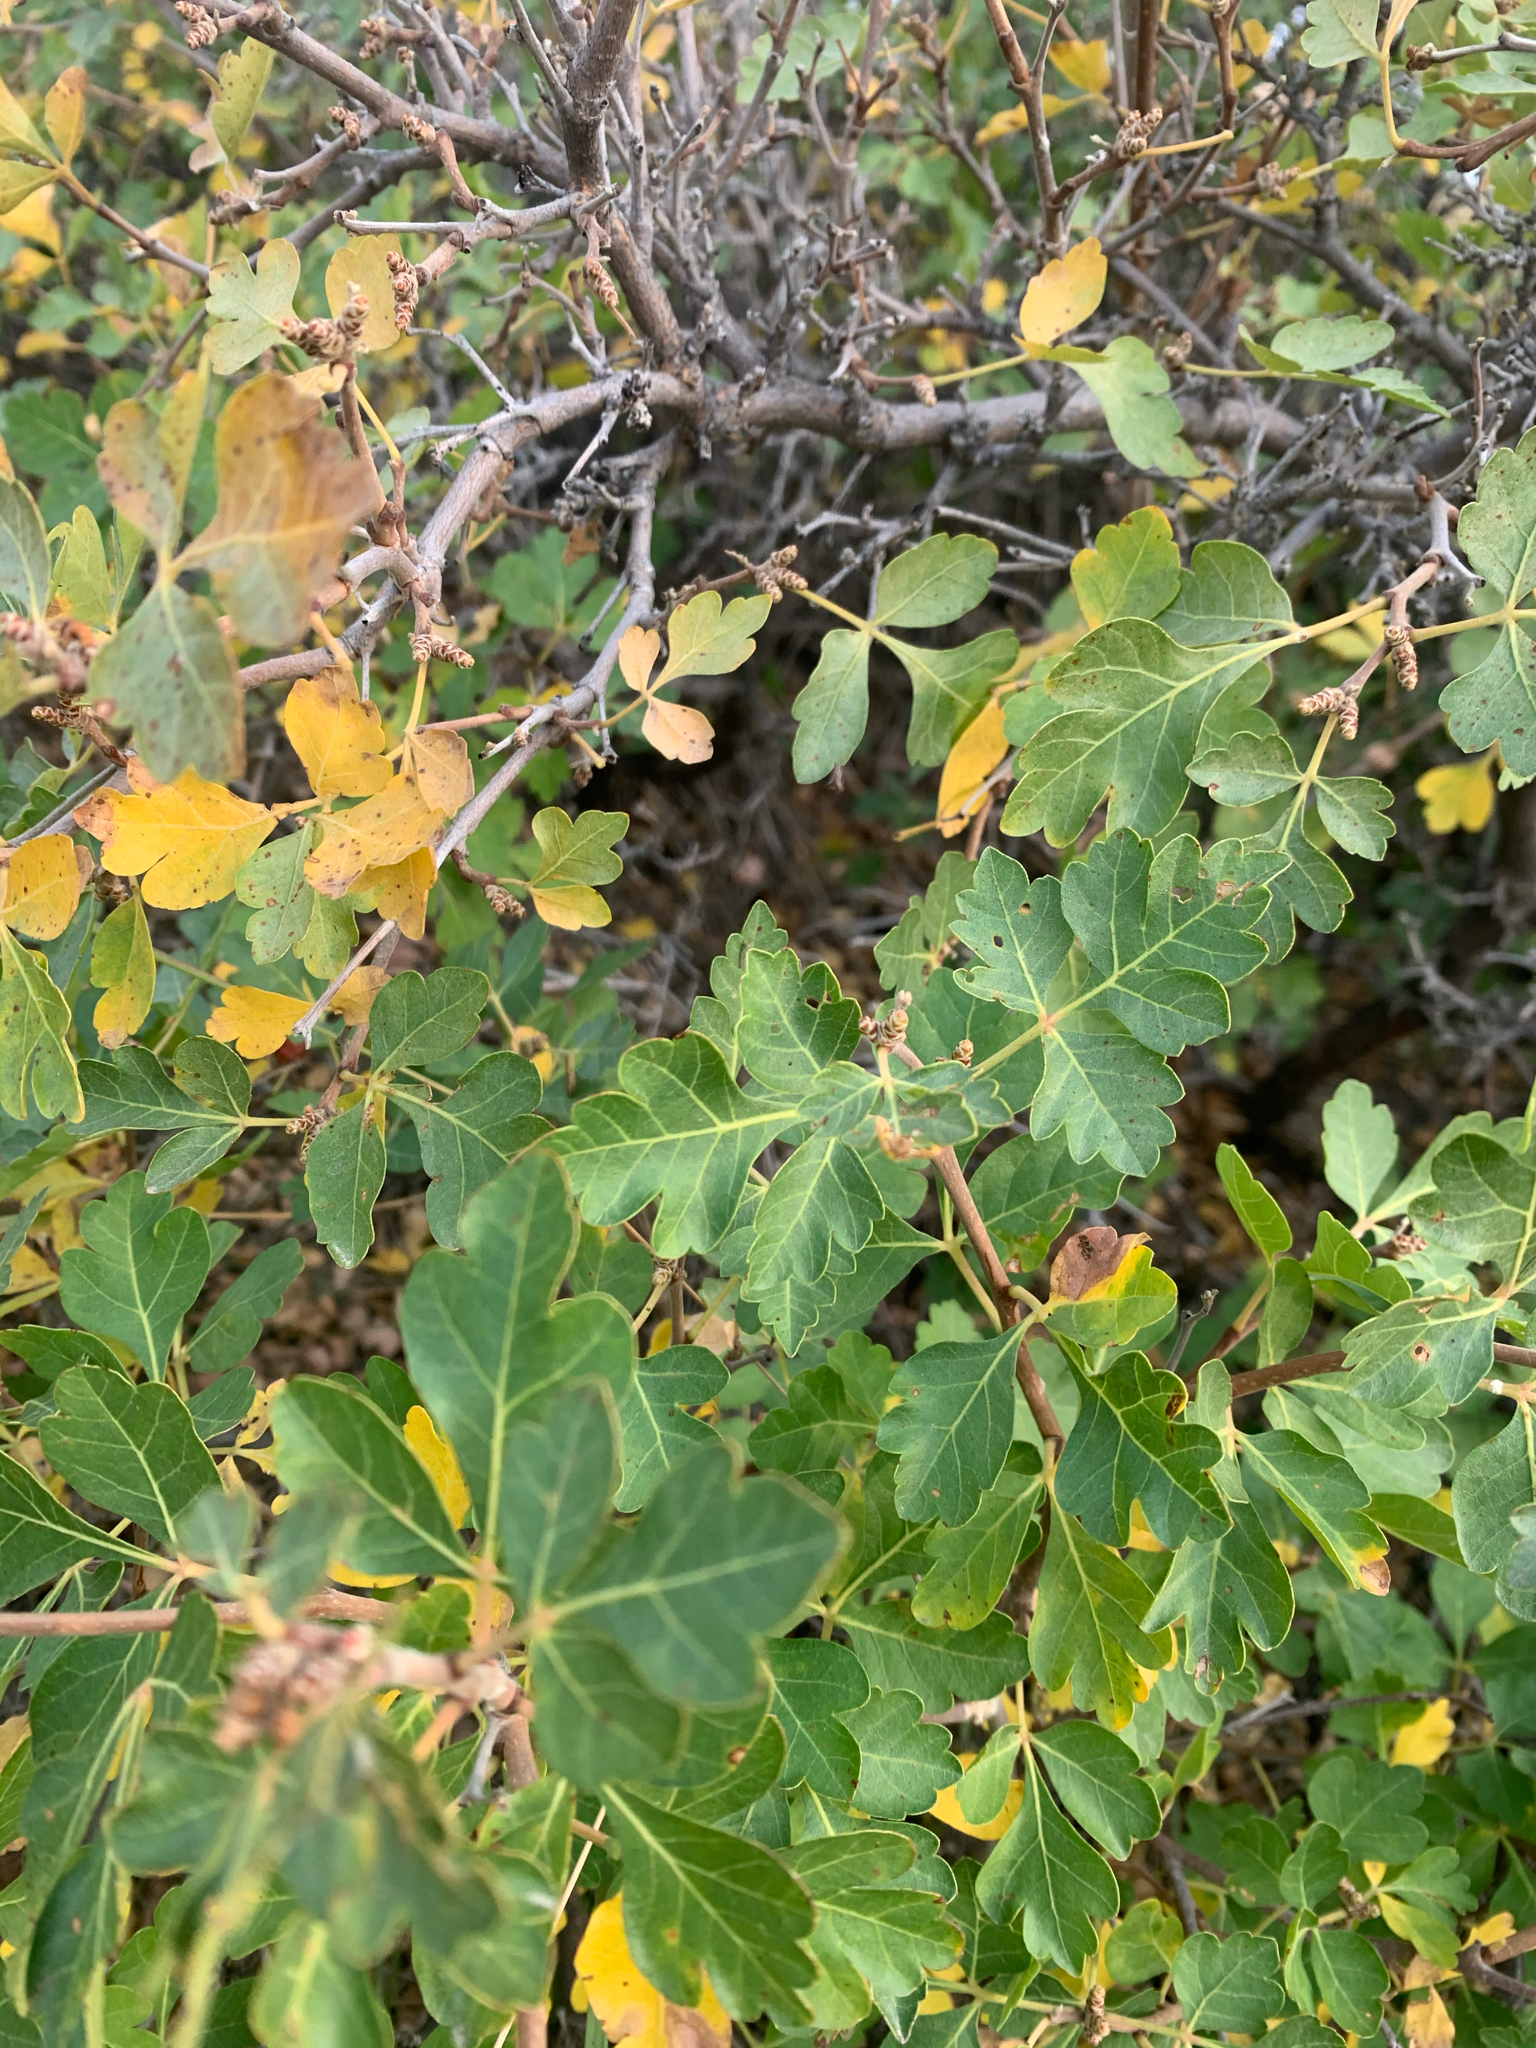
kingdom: Plantae
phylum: Tracheophyta
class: Magnoliopsida
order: Sapindales
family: Anacardiaceae
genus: Rhus
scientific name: Rhus aromatica
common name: Aromatic sumac
